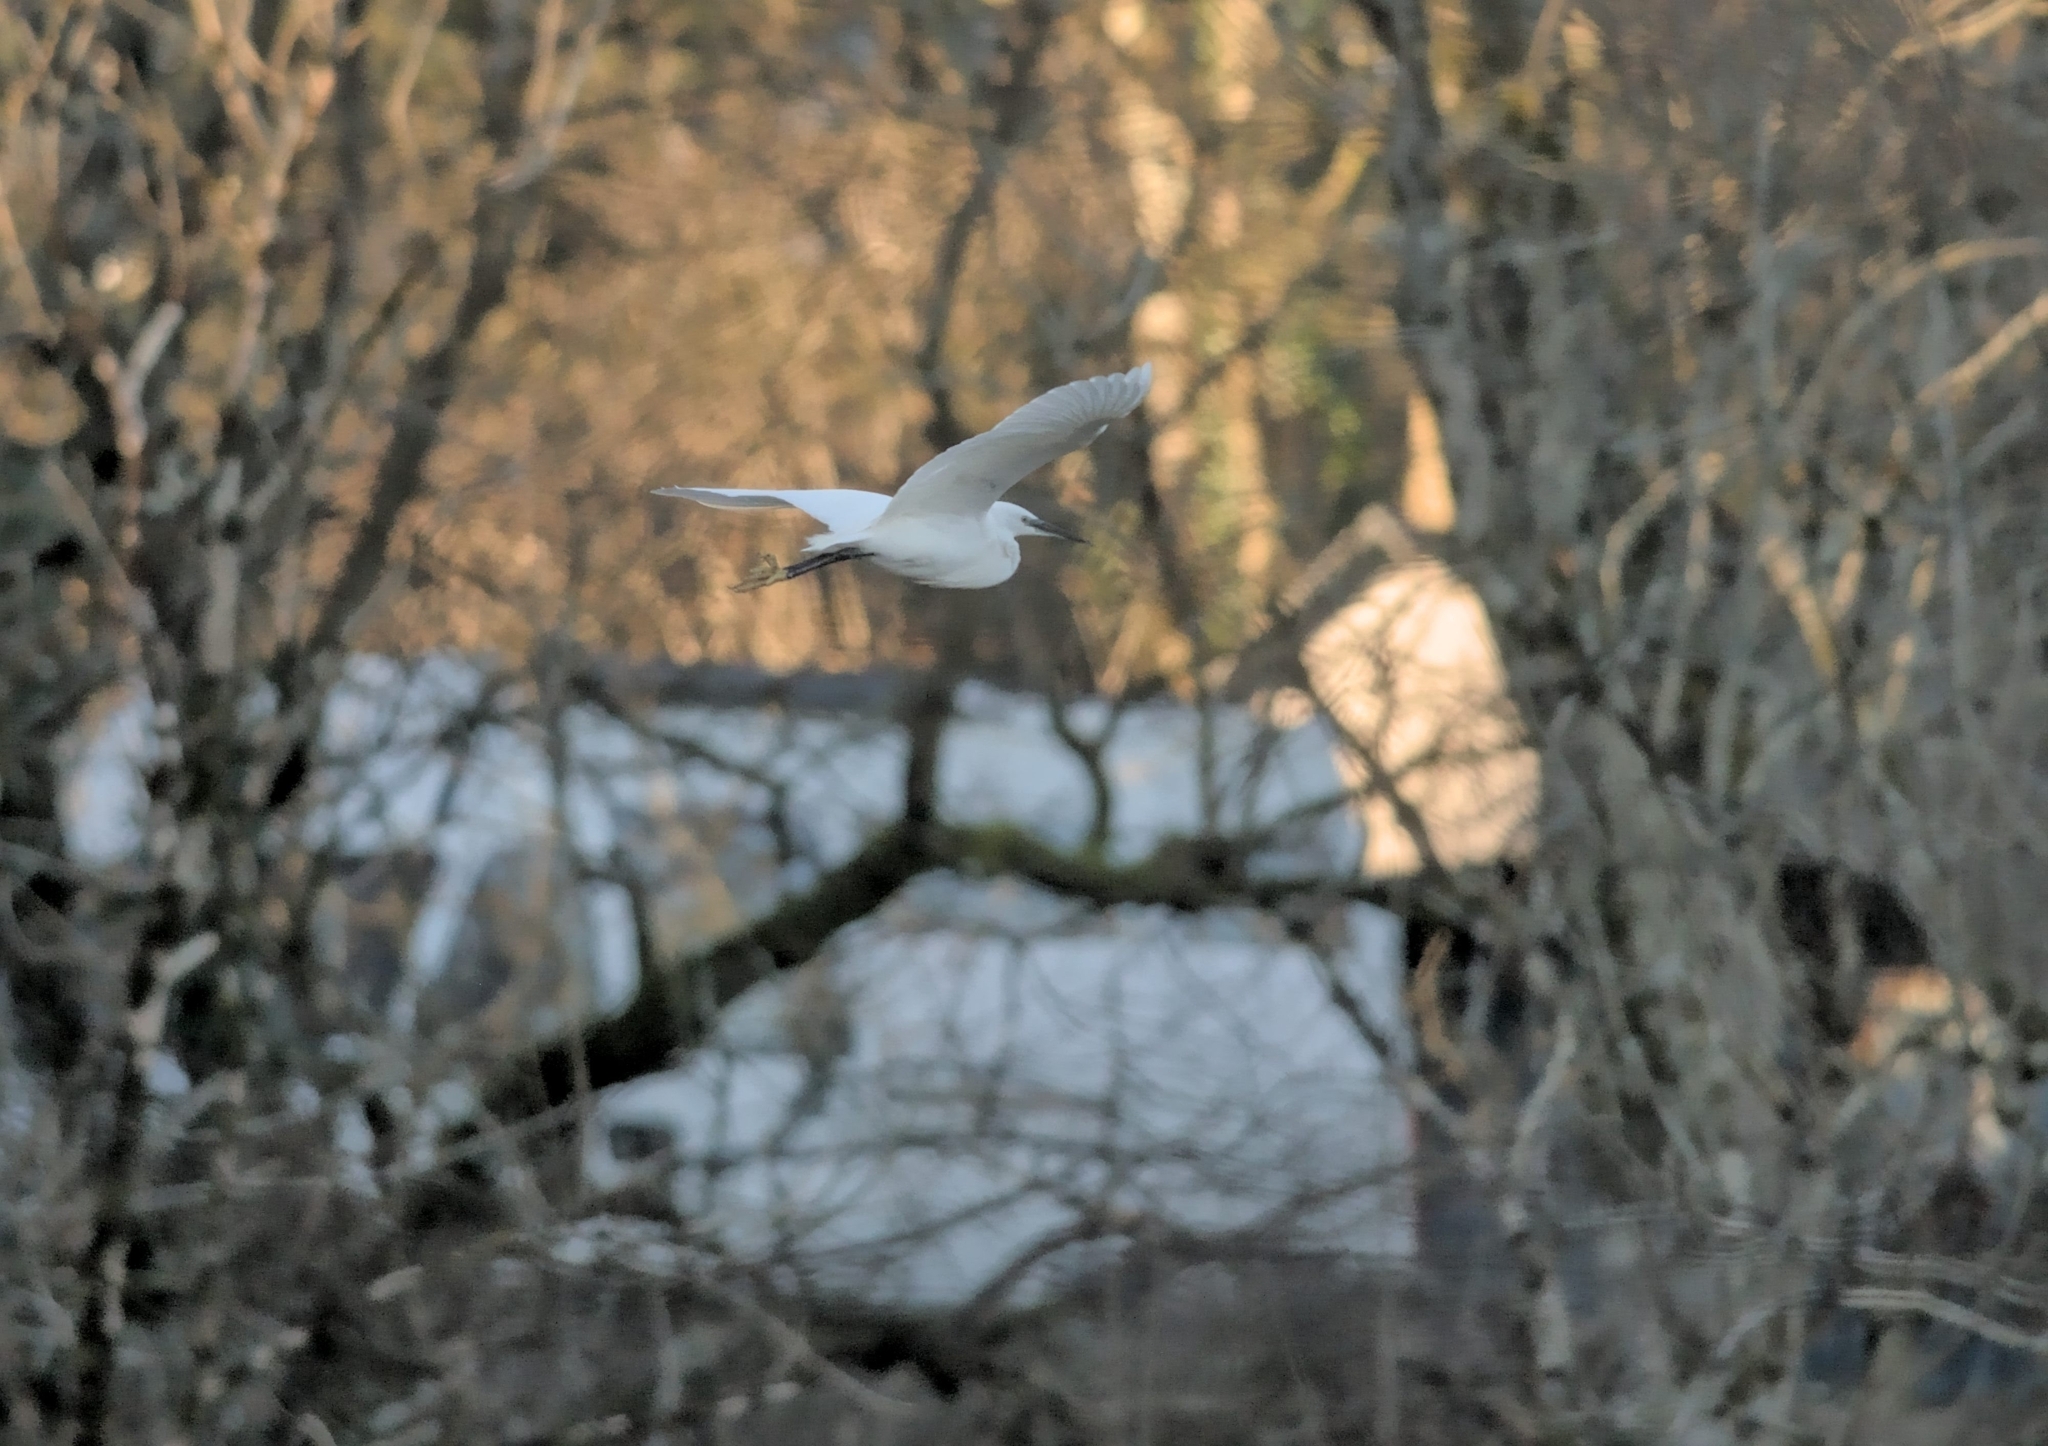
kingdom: Animalia
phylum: Chordata
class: Aves
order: Pelecaniformes
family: Ardeidae
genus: Egretta
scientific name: Egretta garzetta
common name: Little egret
